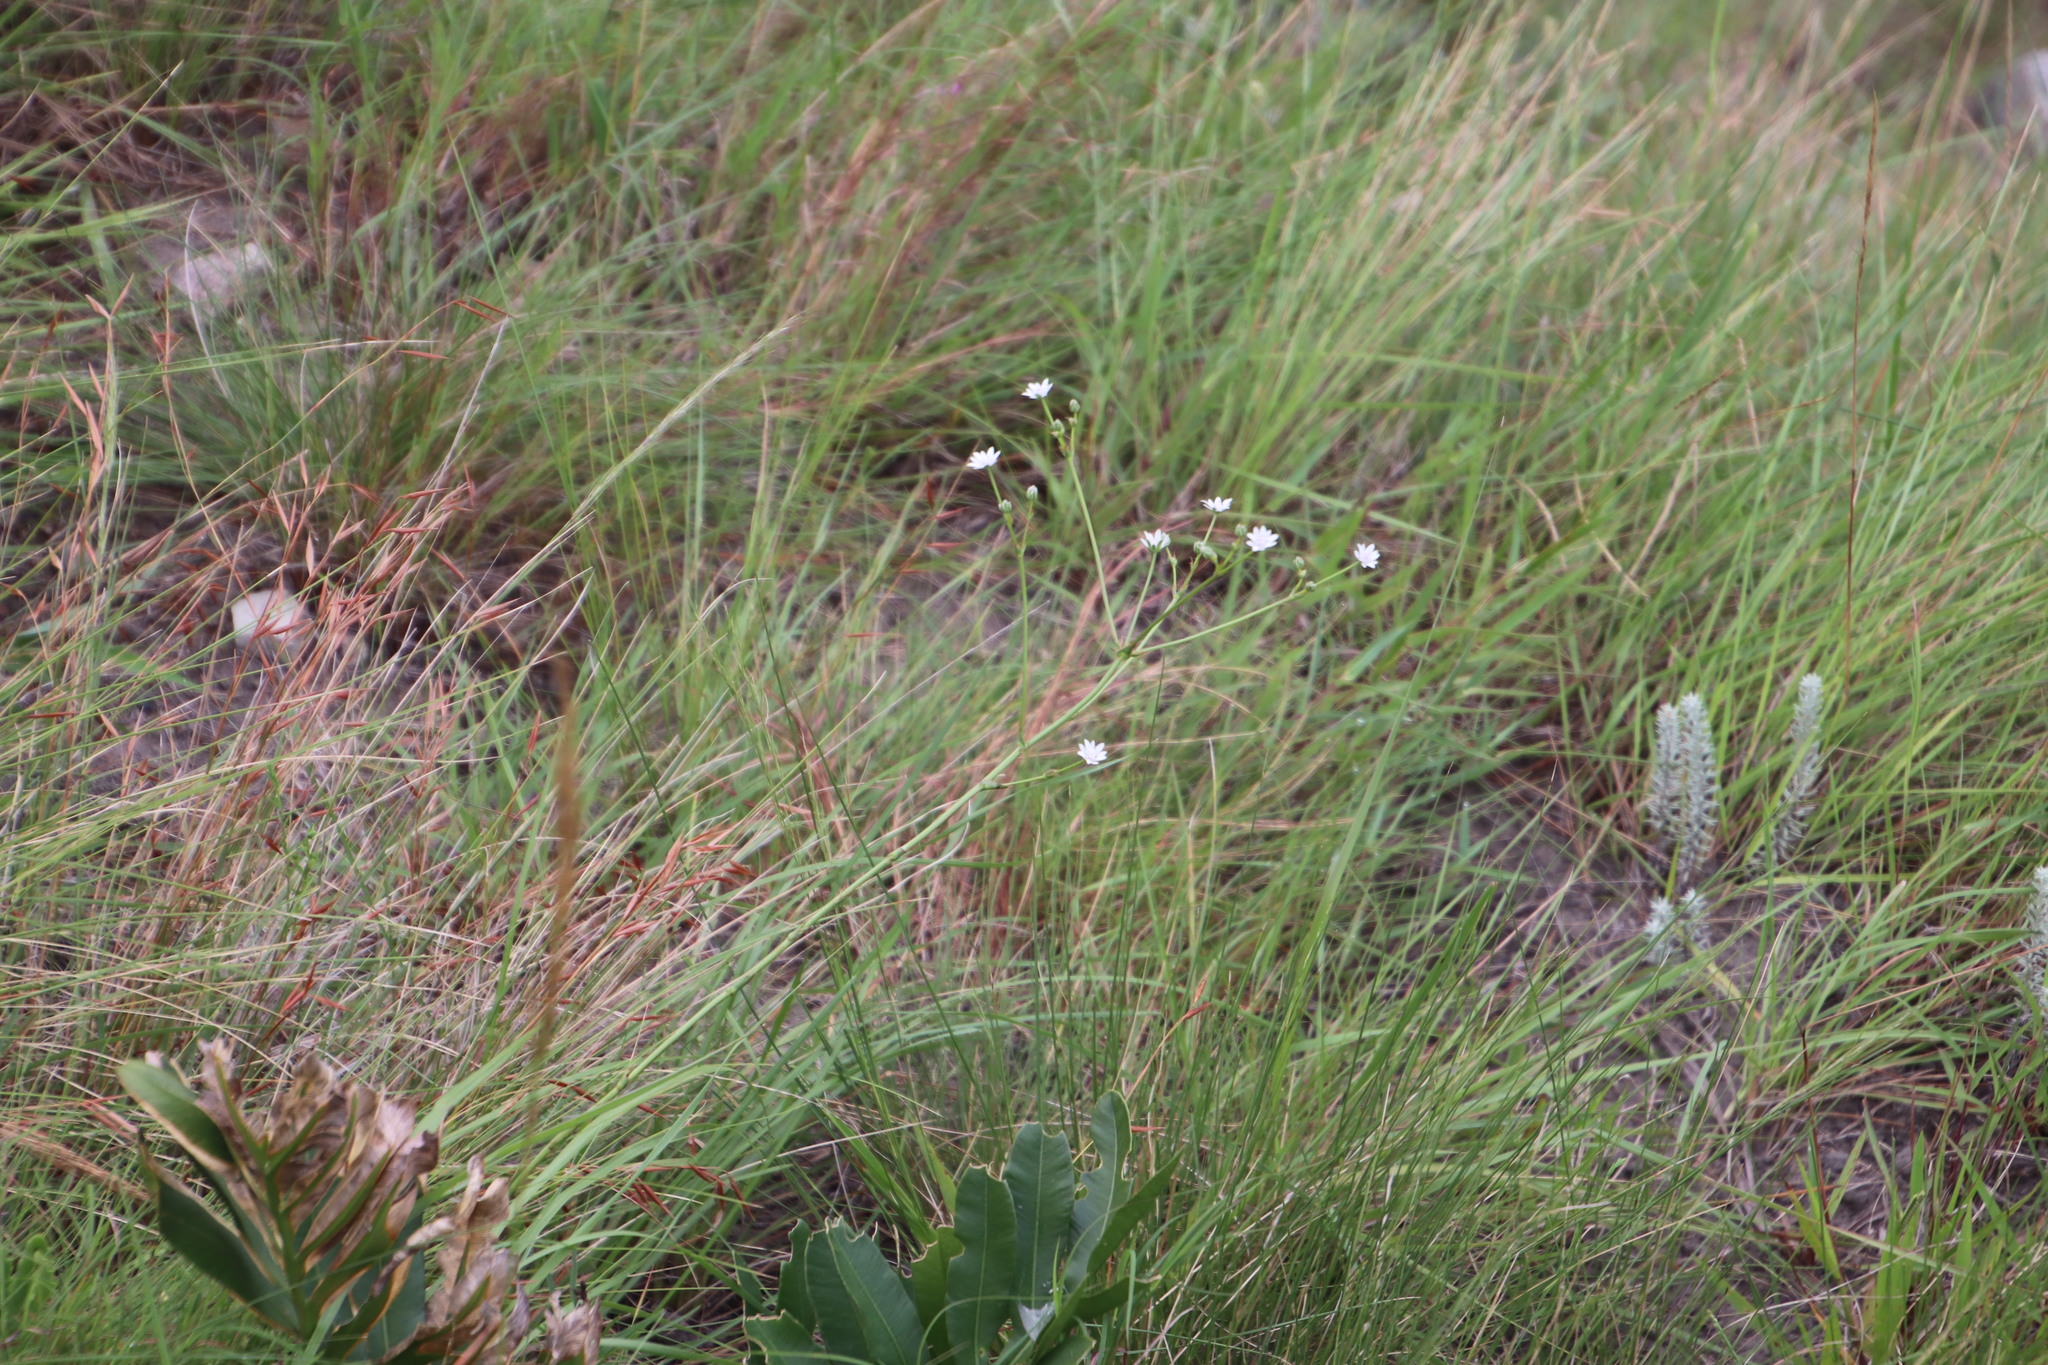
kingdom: Plantae
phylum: Tracheophyta
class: Magnoliopsida
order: Apiales
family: Apiaceae
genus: Alepidea
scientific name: Alepidea peduncularis
